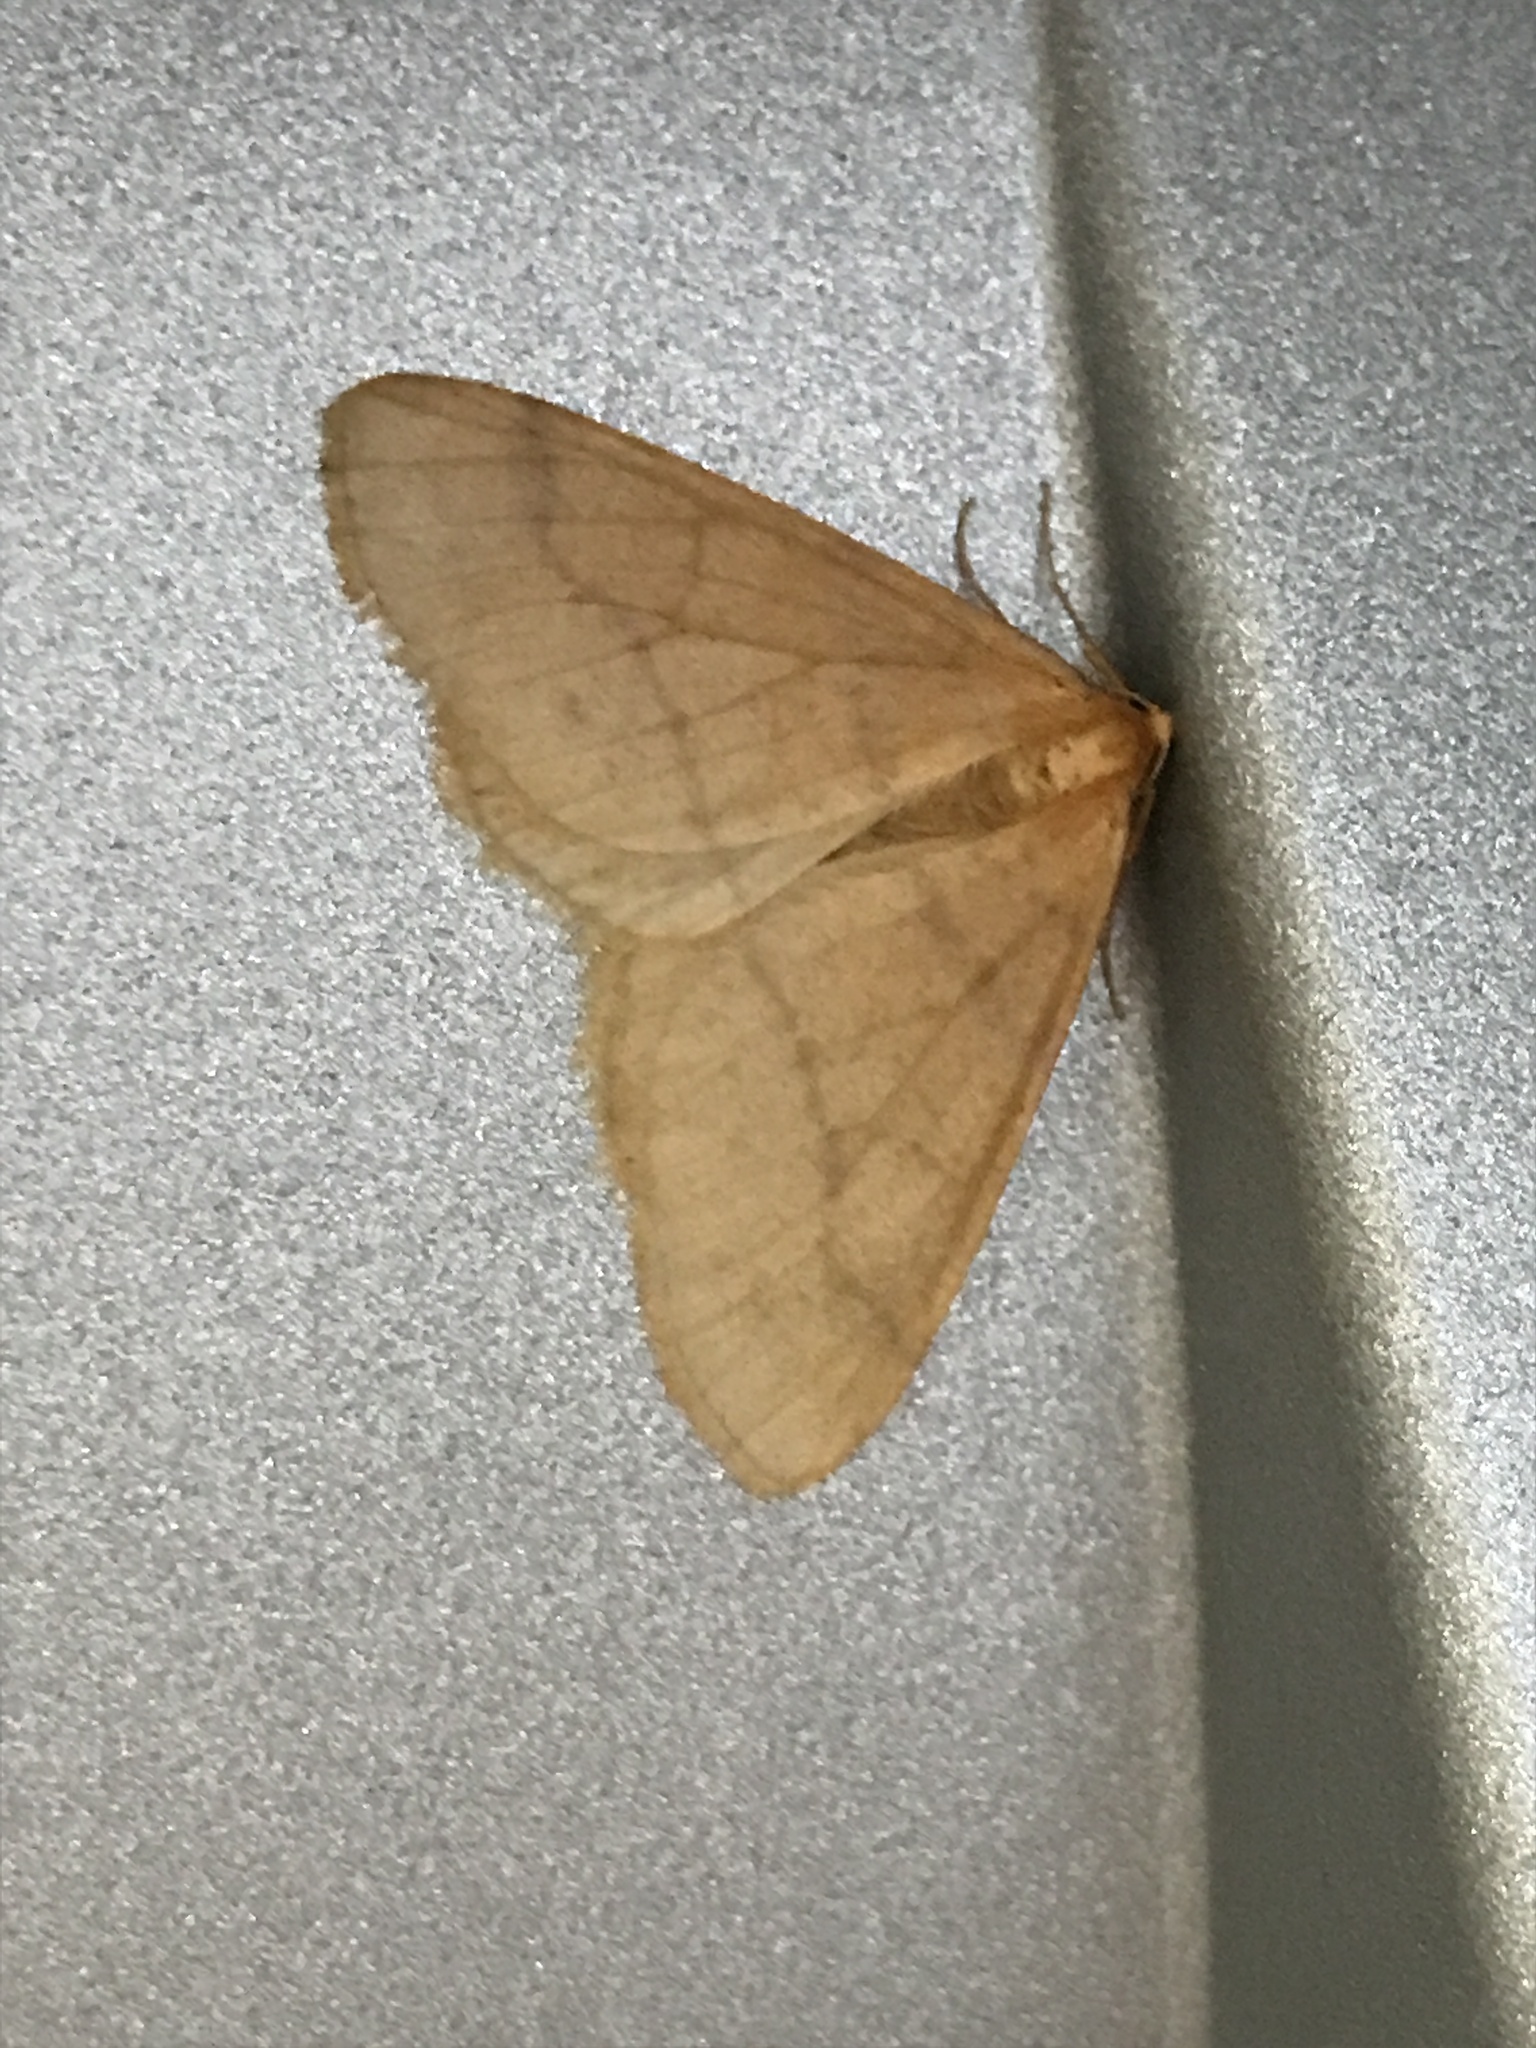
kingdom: Animalia
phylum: Arthropoda
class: Insecta
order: Lepidoptera
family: Geometridae
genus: Agriopis
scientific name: Agriopis aurantiaria
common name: Scarce umber
